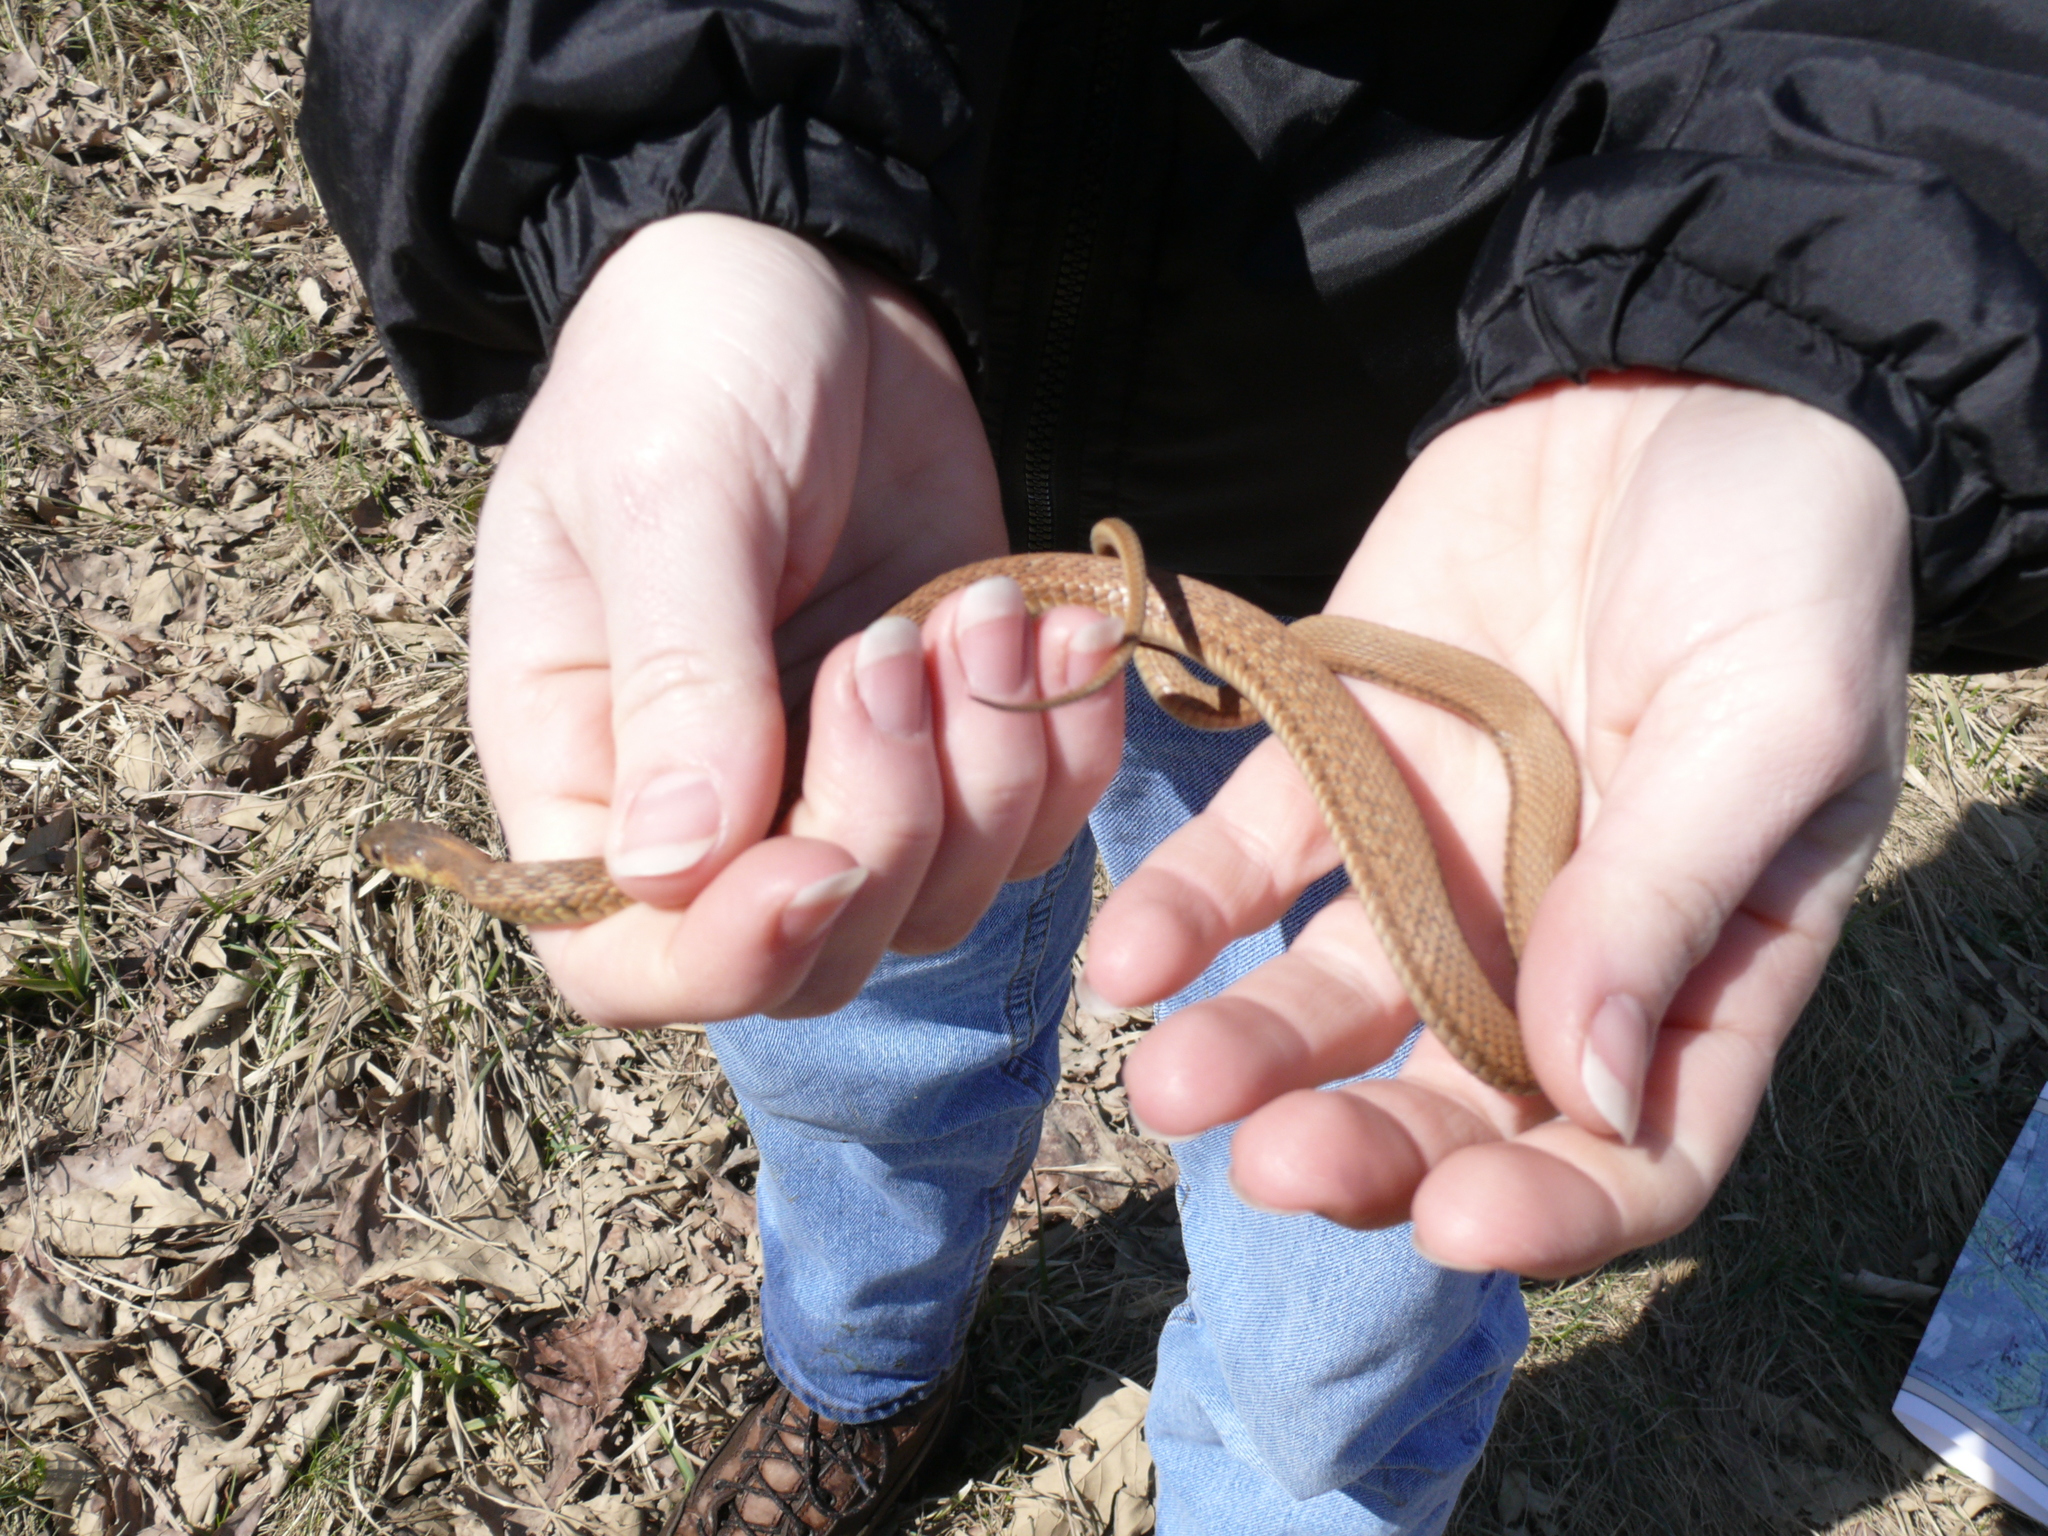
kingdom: Animalia
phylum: Chordata
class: Squamata
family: Colubridae
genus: Thamnophis
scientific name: Thamnophis sirtalis
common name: Common garter snake
